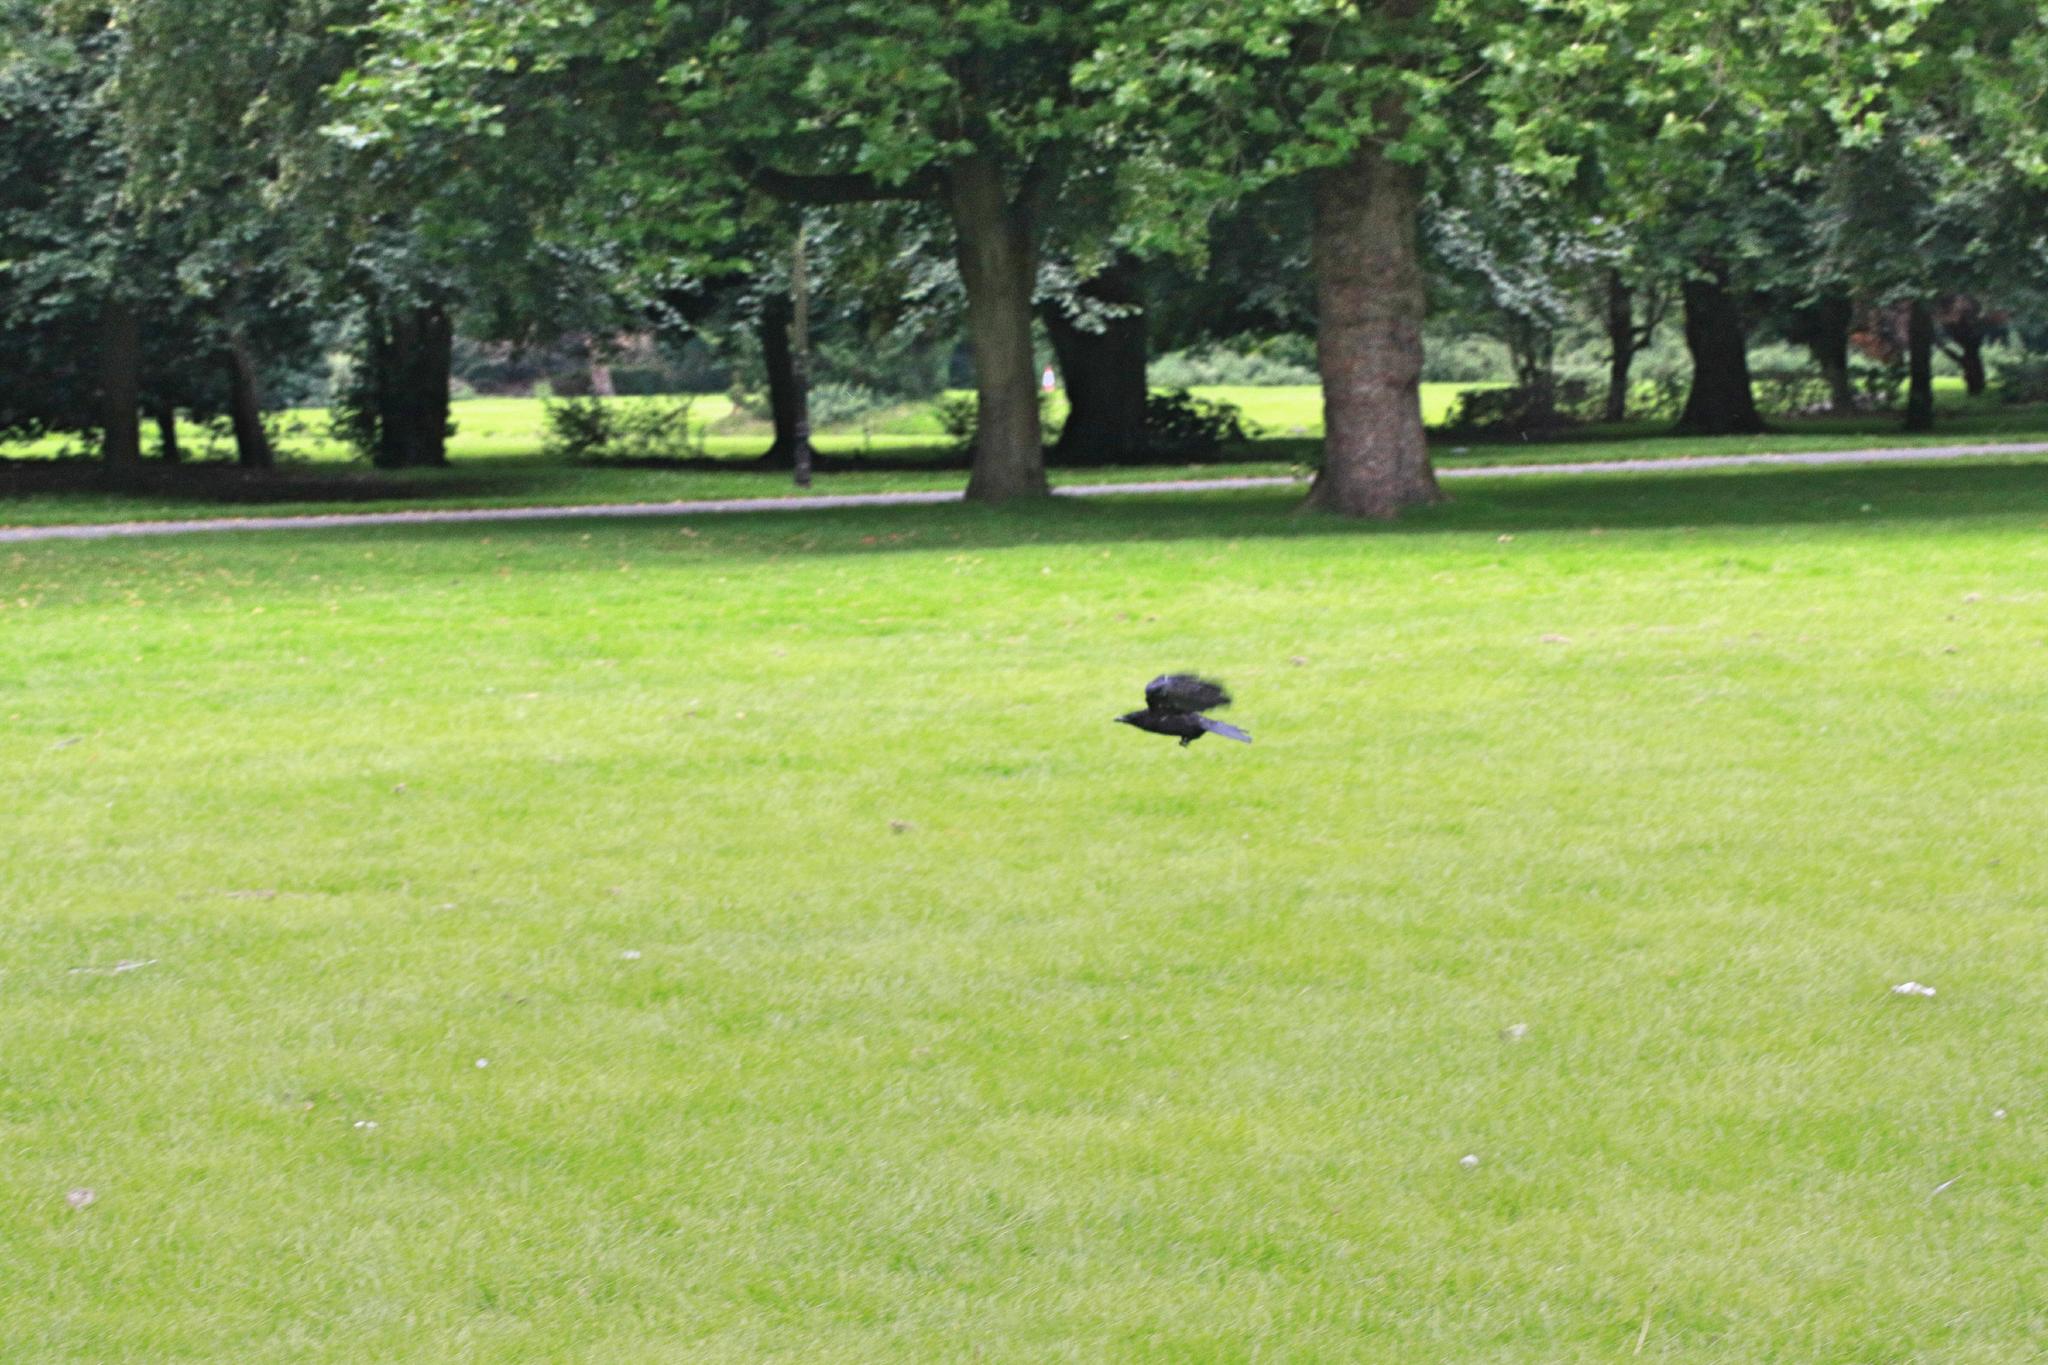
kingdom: Animalia
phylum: Chordata
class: Aves
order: Passeriformes
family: Corvidae
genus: Corvus
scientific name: Corvus corone
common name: Carrion crow
